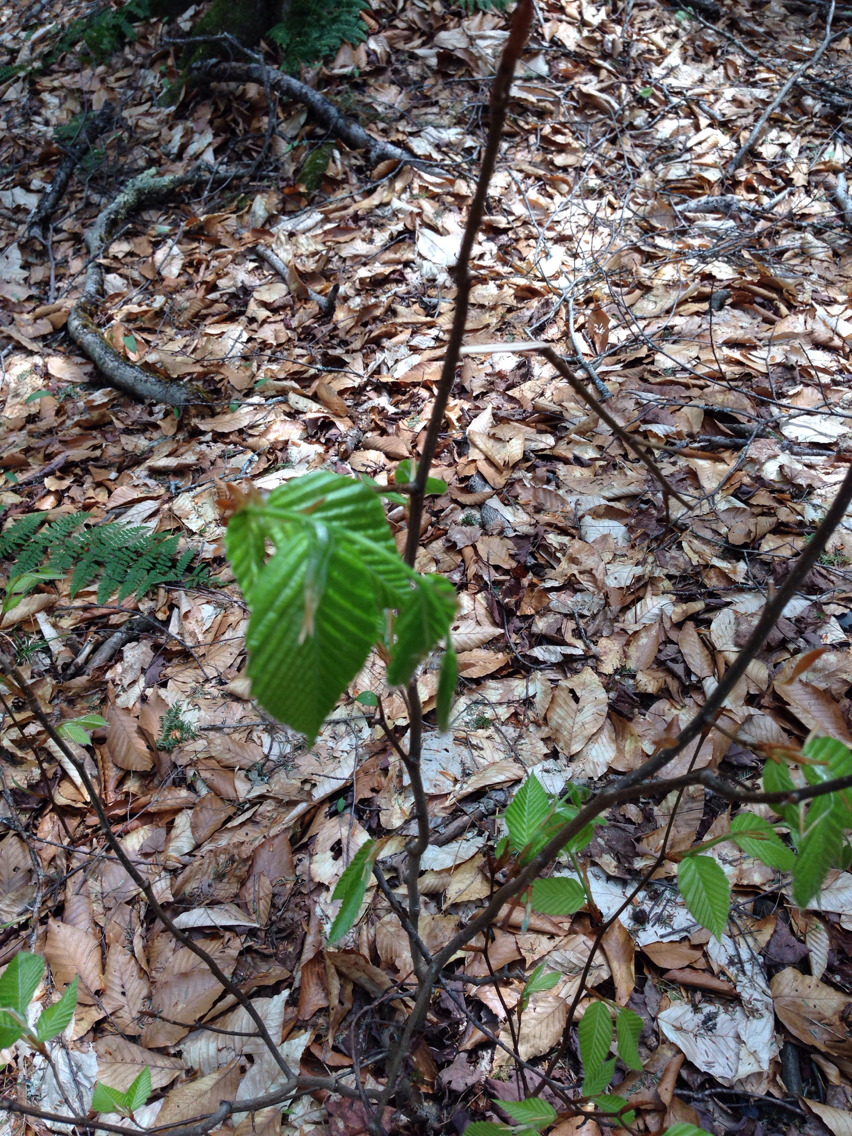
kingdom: Plantae
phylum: Tracheophyta
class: Magnoliopsida
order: Fagales
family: Fagaceae
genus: Fagus
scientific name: Fagus grandifolia
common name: American beech
